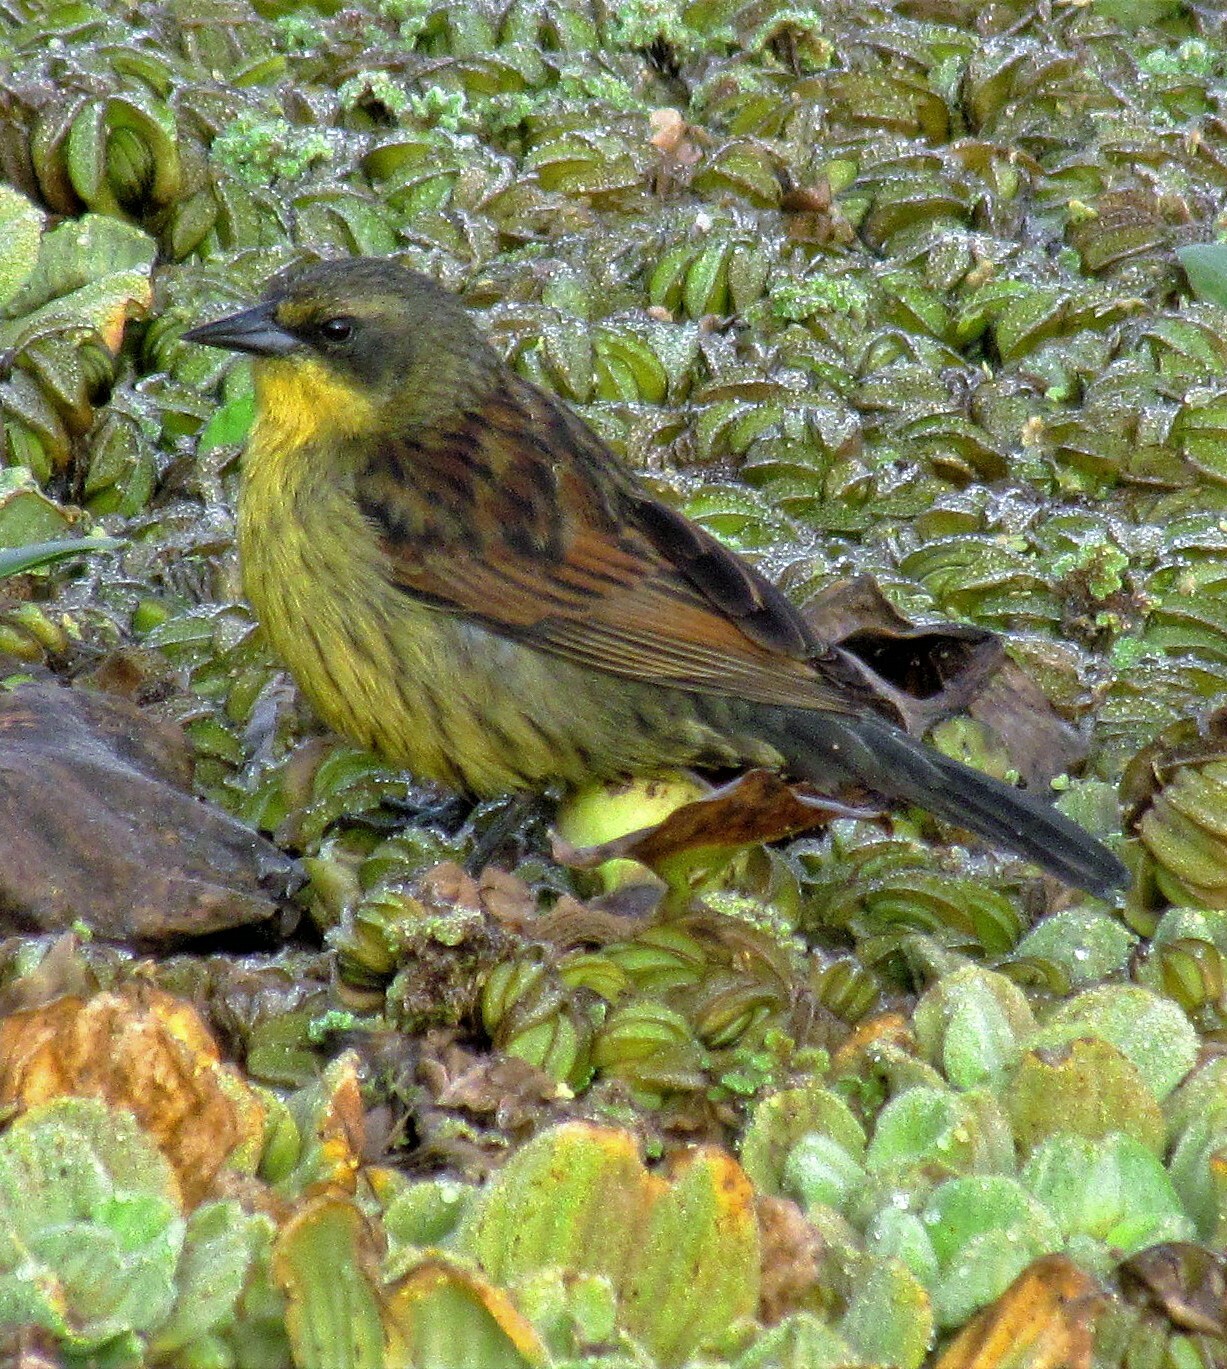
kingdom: Animalia
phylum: Chordata
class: Aves
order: Passeriformes
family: Icteridae
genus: Agelasticus
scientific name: Agelasticus cyanopus
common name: Unicolored blackbird
